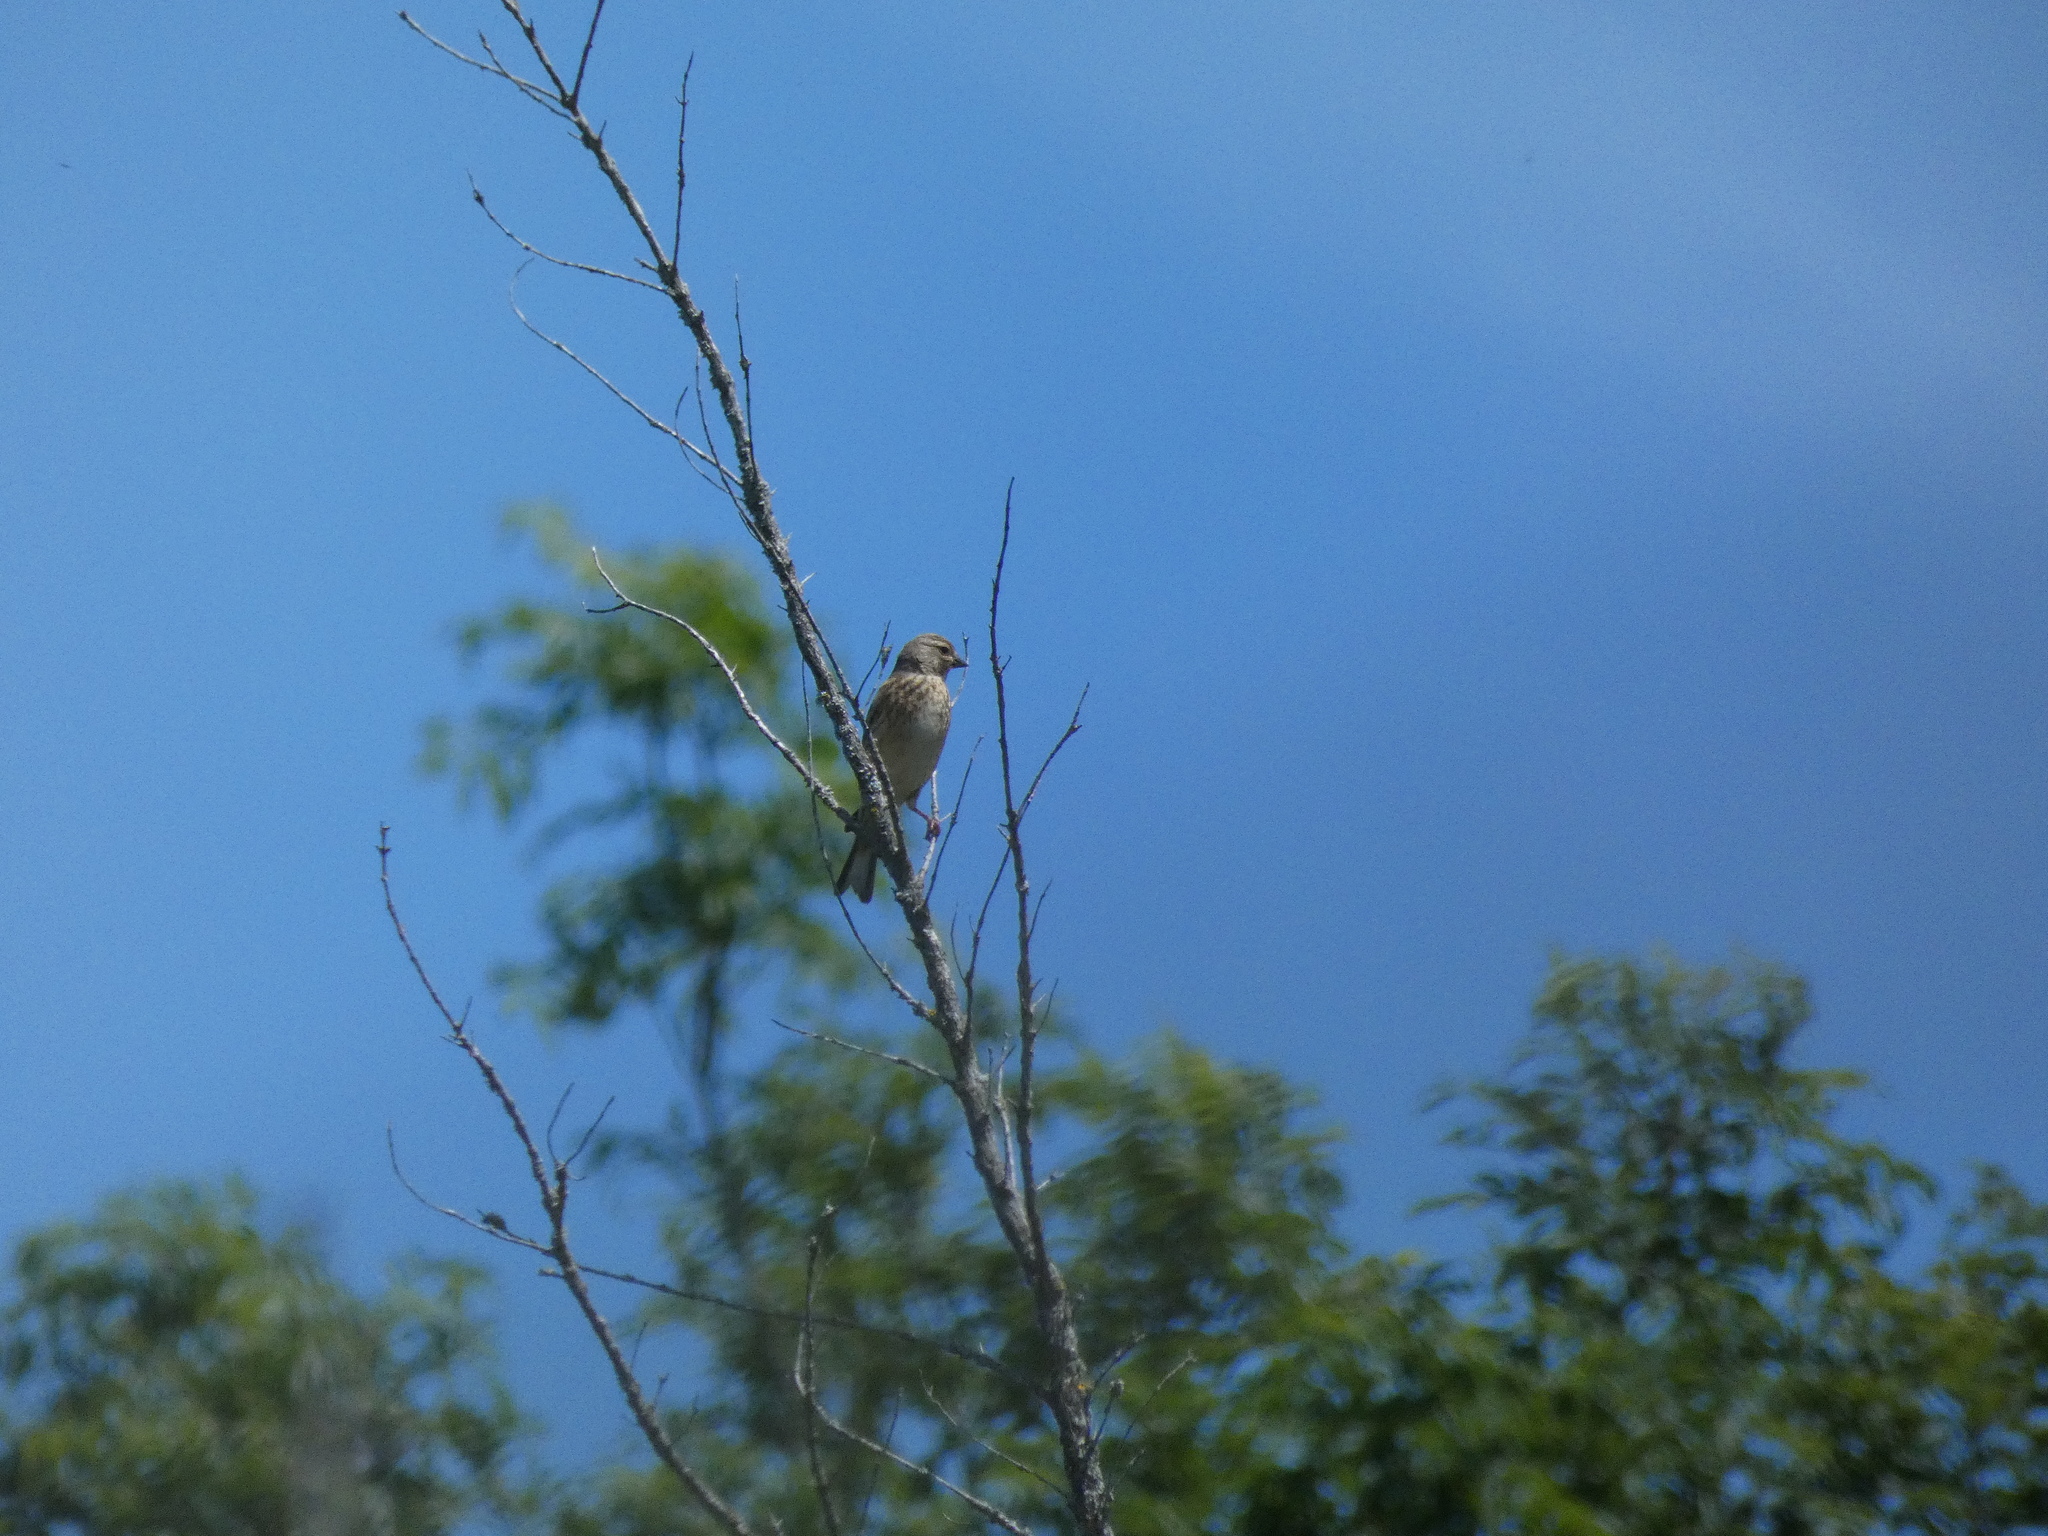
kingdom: Animalia
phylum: Chordata
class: Aves
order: Passeriformes
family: Fringillidae
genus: Linaria
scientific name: Linaria cannabina
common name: Common linnet
